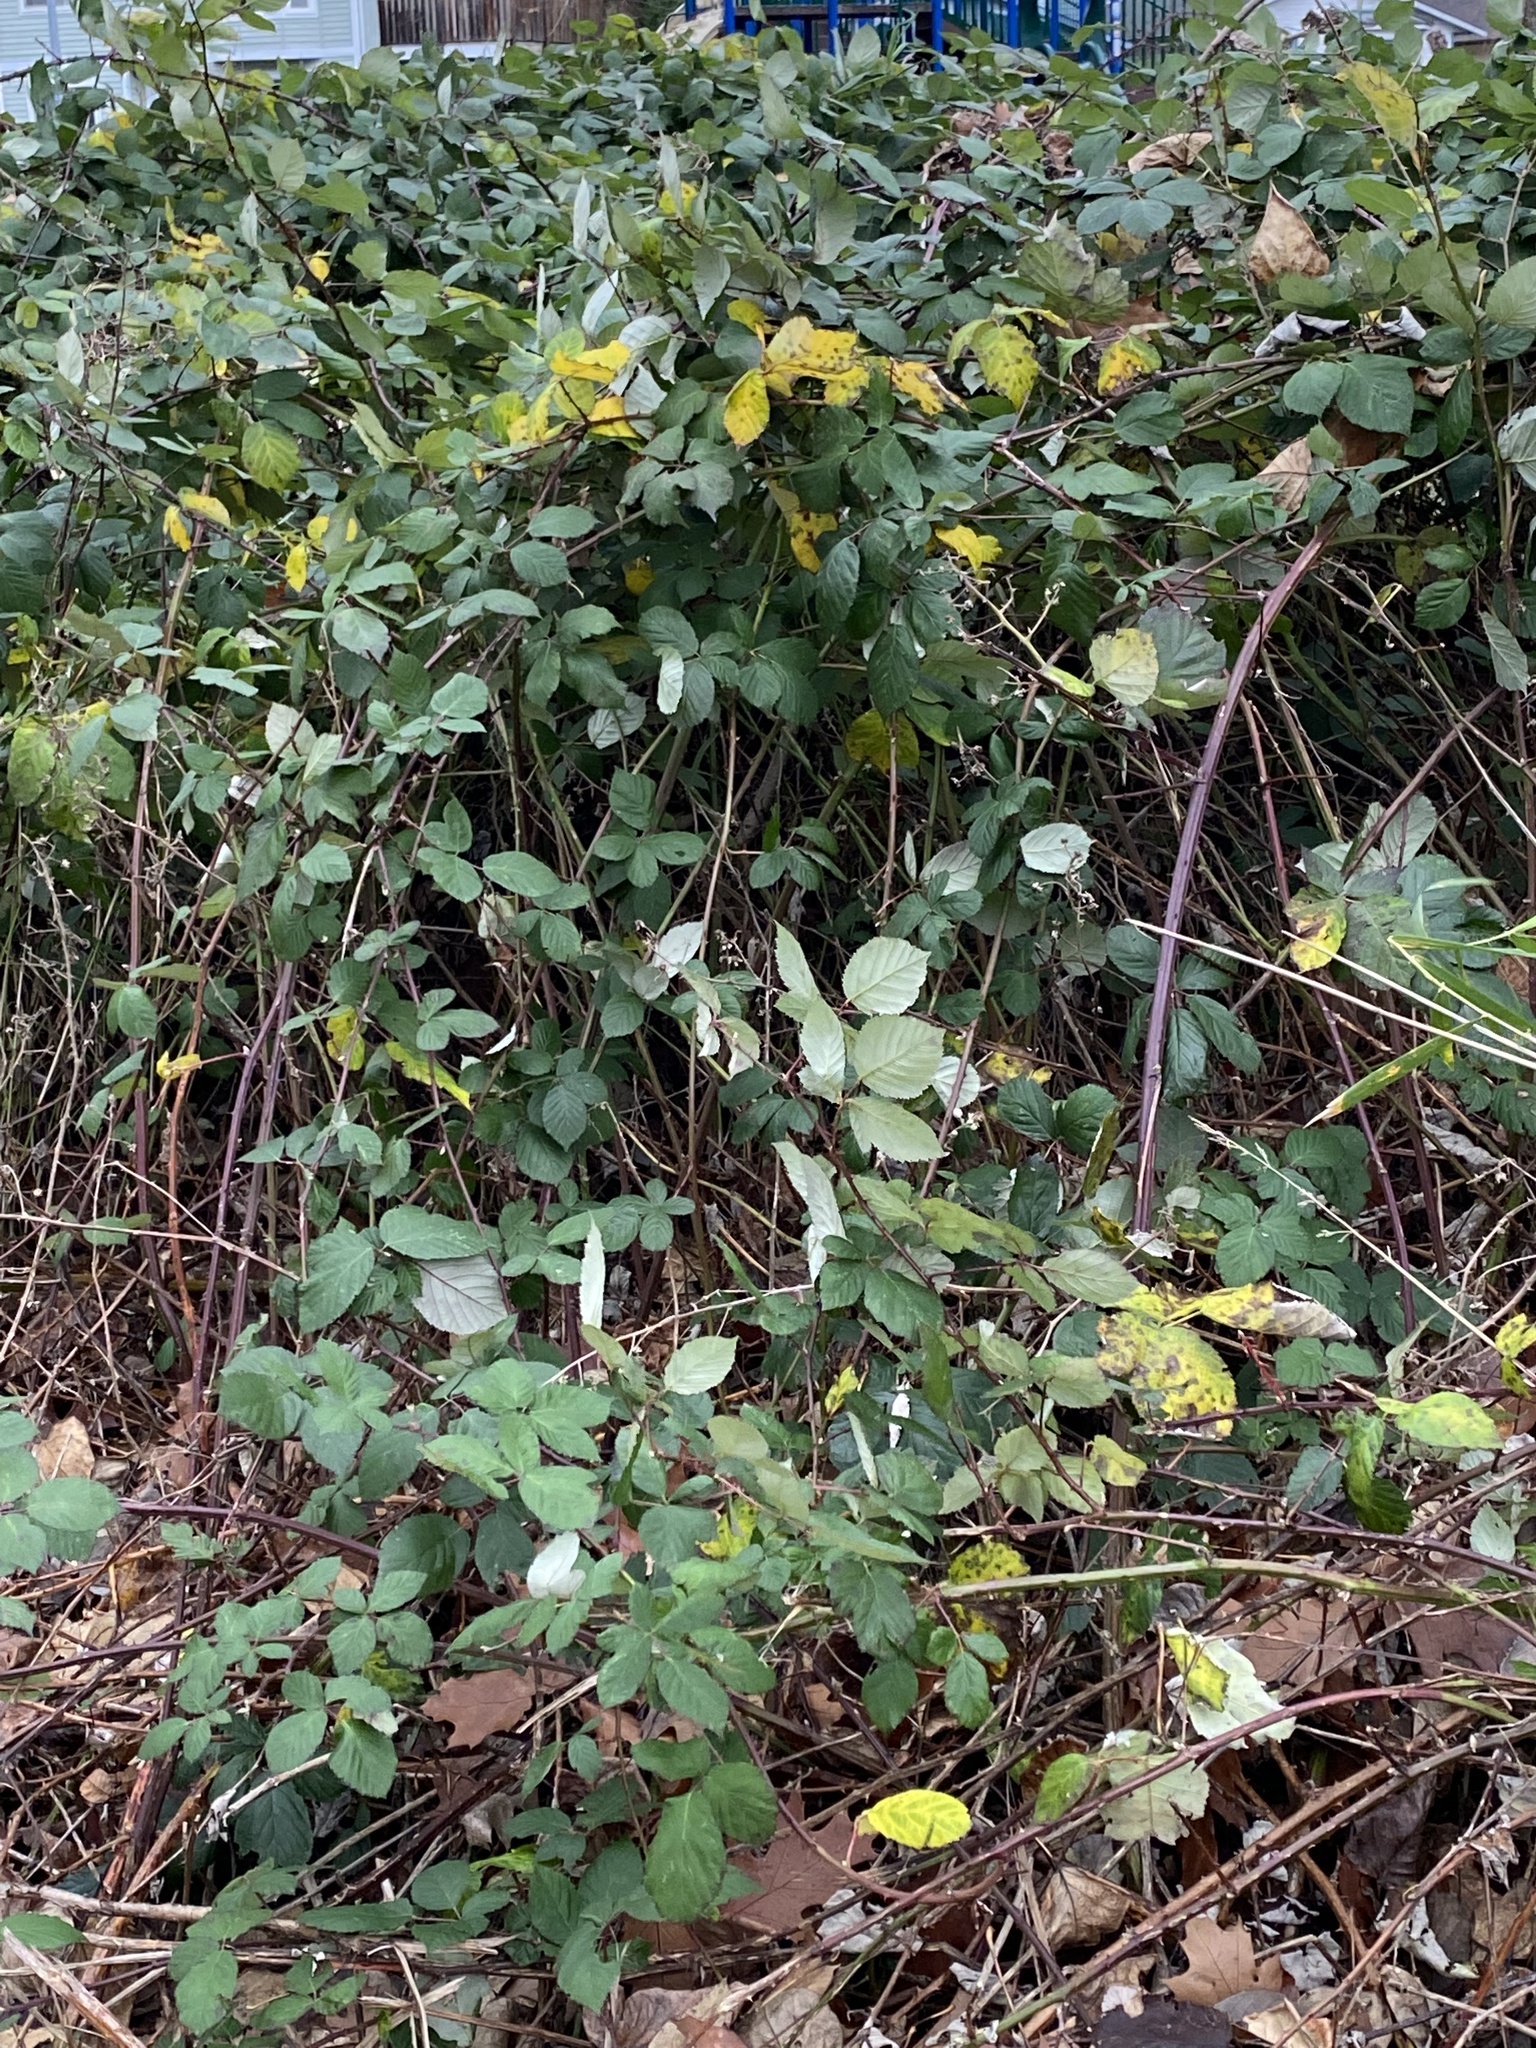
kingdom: Plantae
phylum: Tracheophyta
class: Magnoliopsida
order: Rosales
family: Rosaceae
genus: Rubus
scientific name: Rubus armeniacus
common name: Himalayan blackberry
